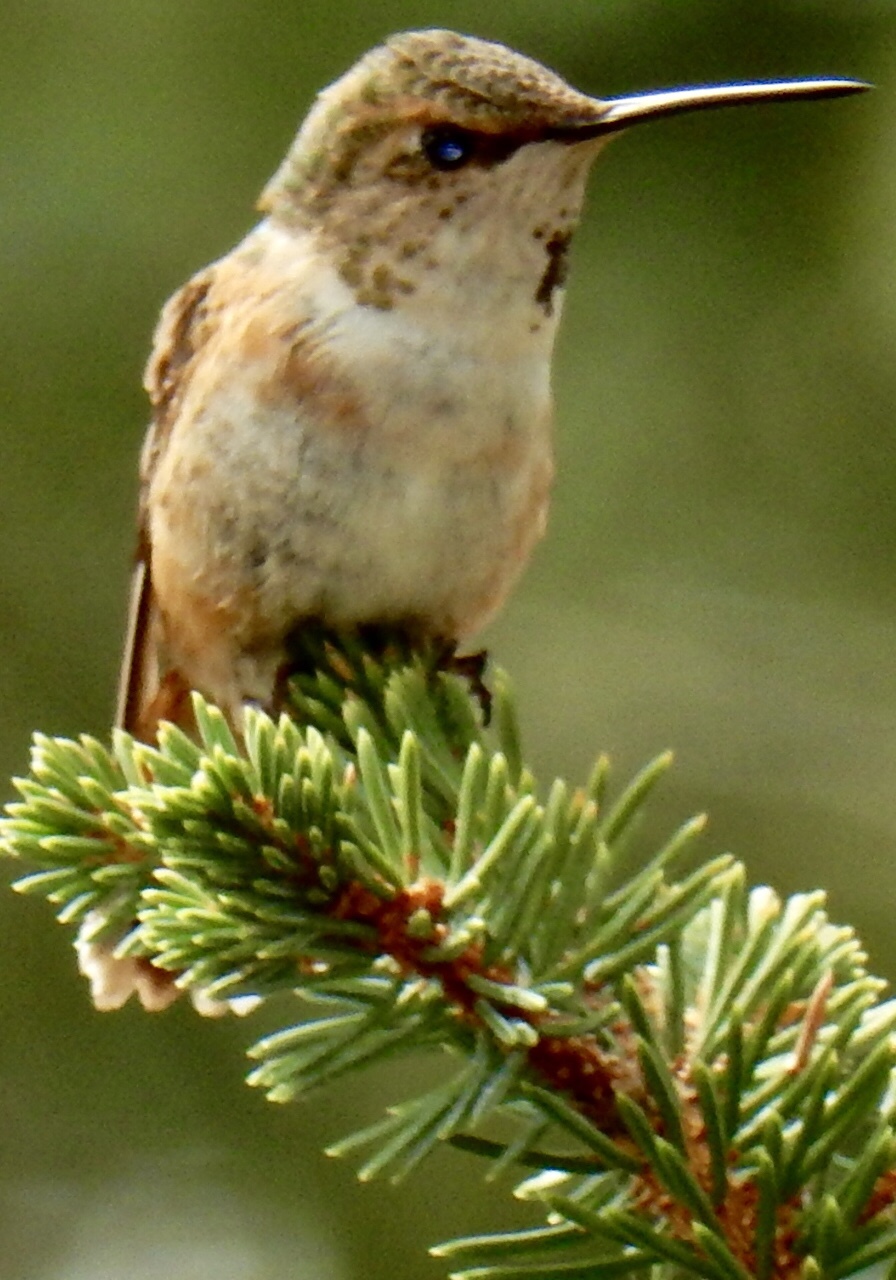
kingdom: Animalia
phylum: Chordata
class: Aves
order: Apodiformes
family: Trochilidae
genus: Selasphorus
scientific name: Selasphorus rufus
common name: Rufous hummingbird
